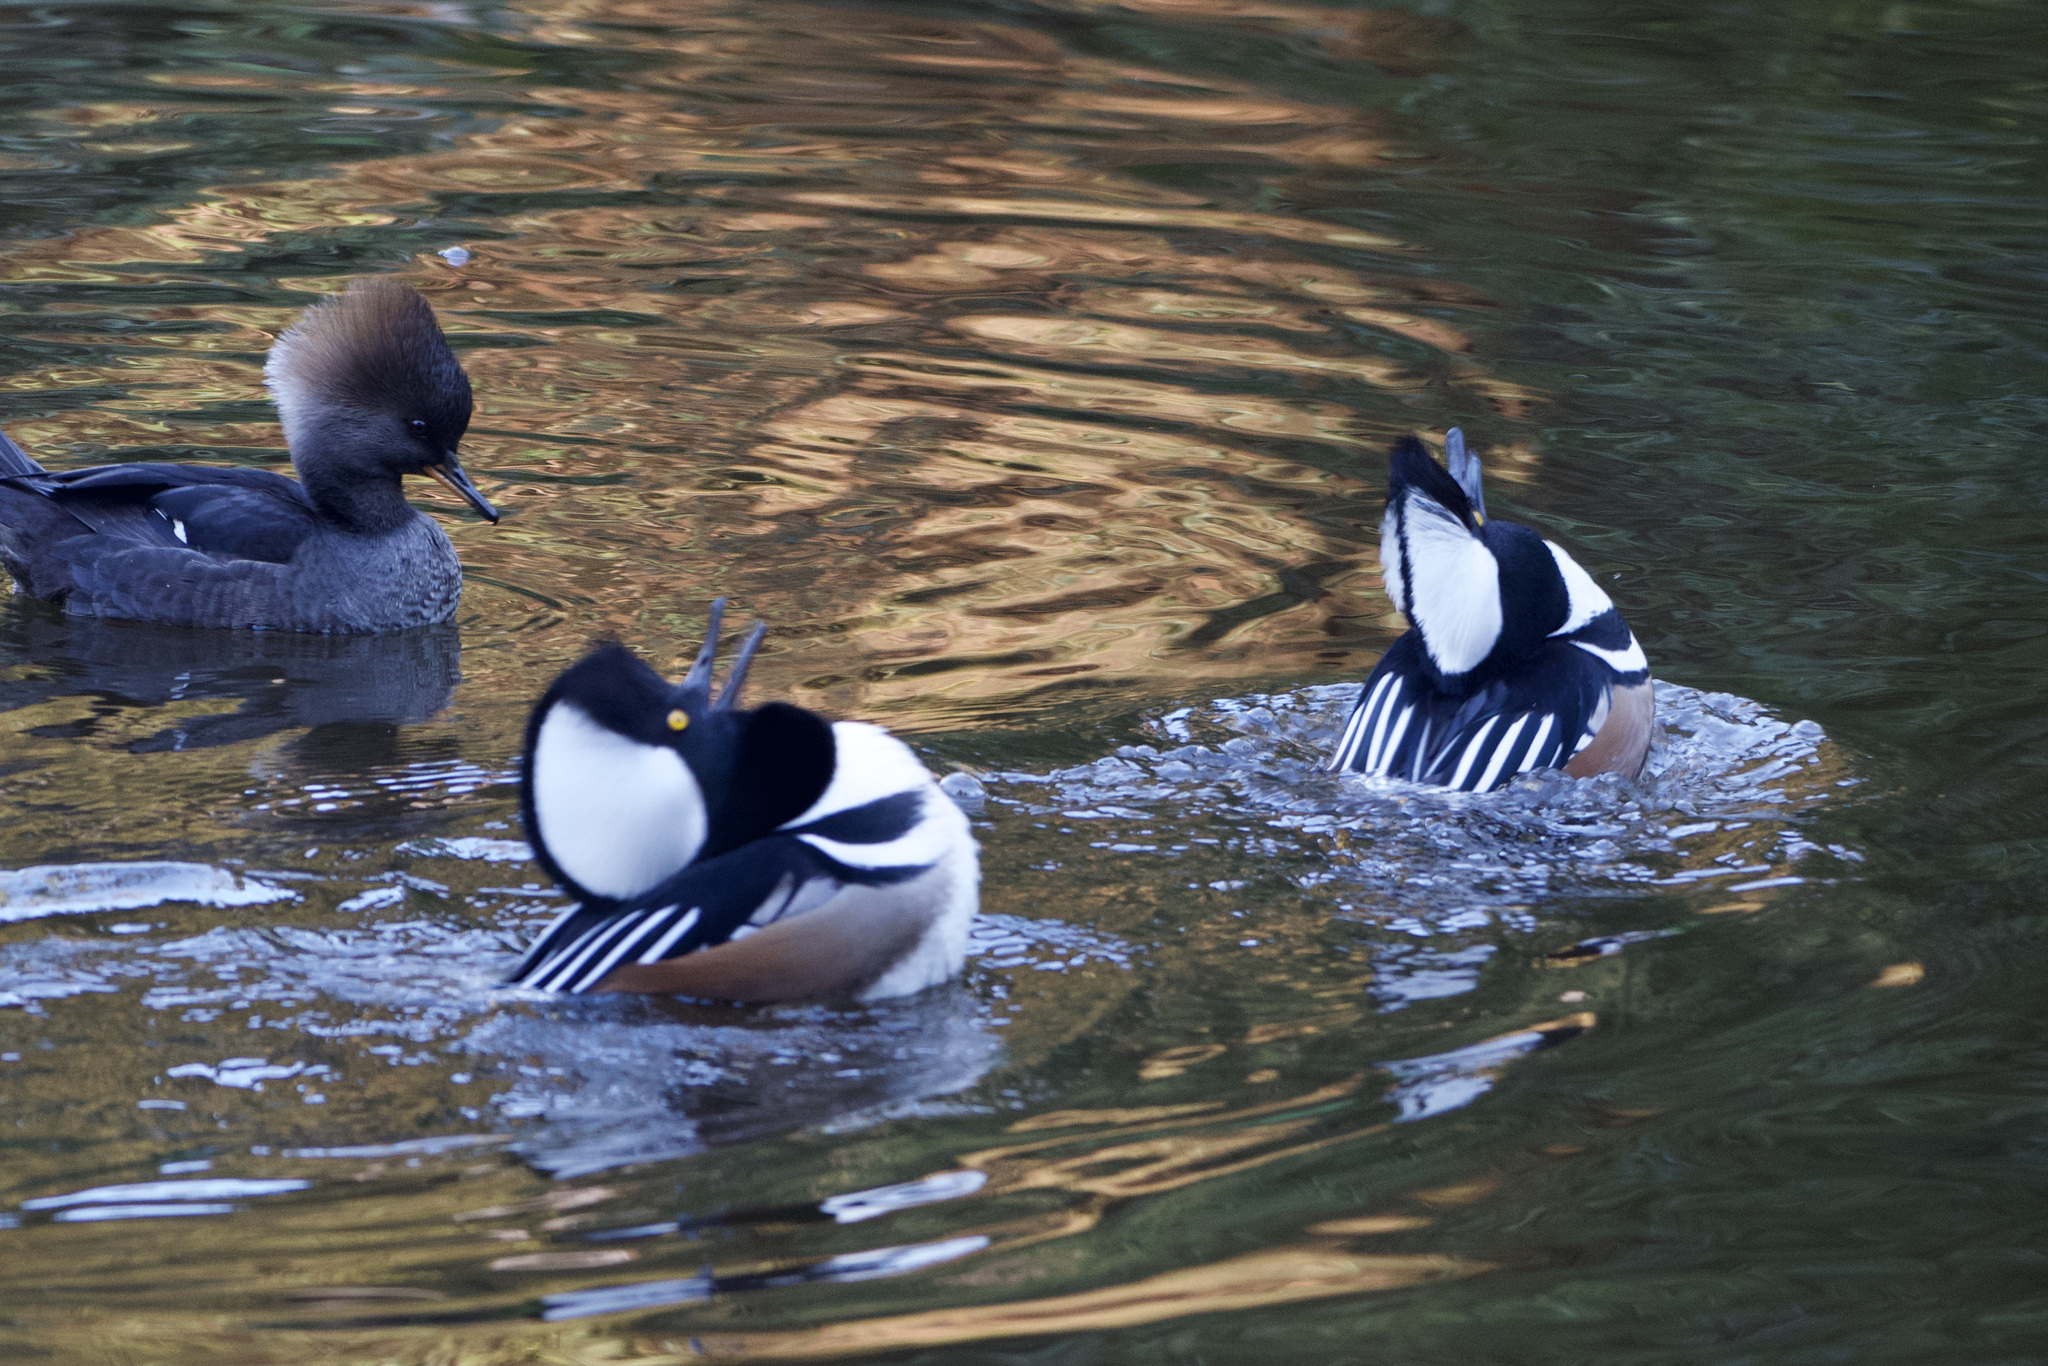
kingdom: Animalia
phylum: Chordata
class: Aves
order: Anseriformes
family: Anatidae
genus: Lophodytes
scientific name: Lophodytes cucullatus
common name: Hooded merganser
